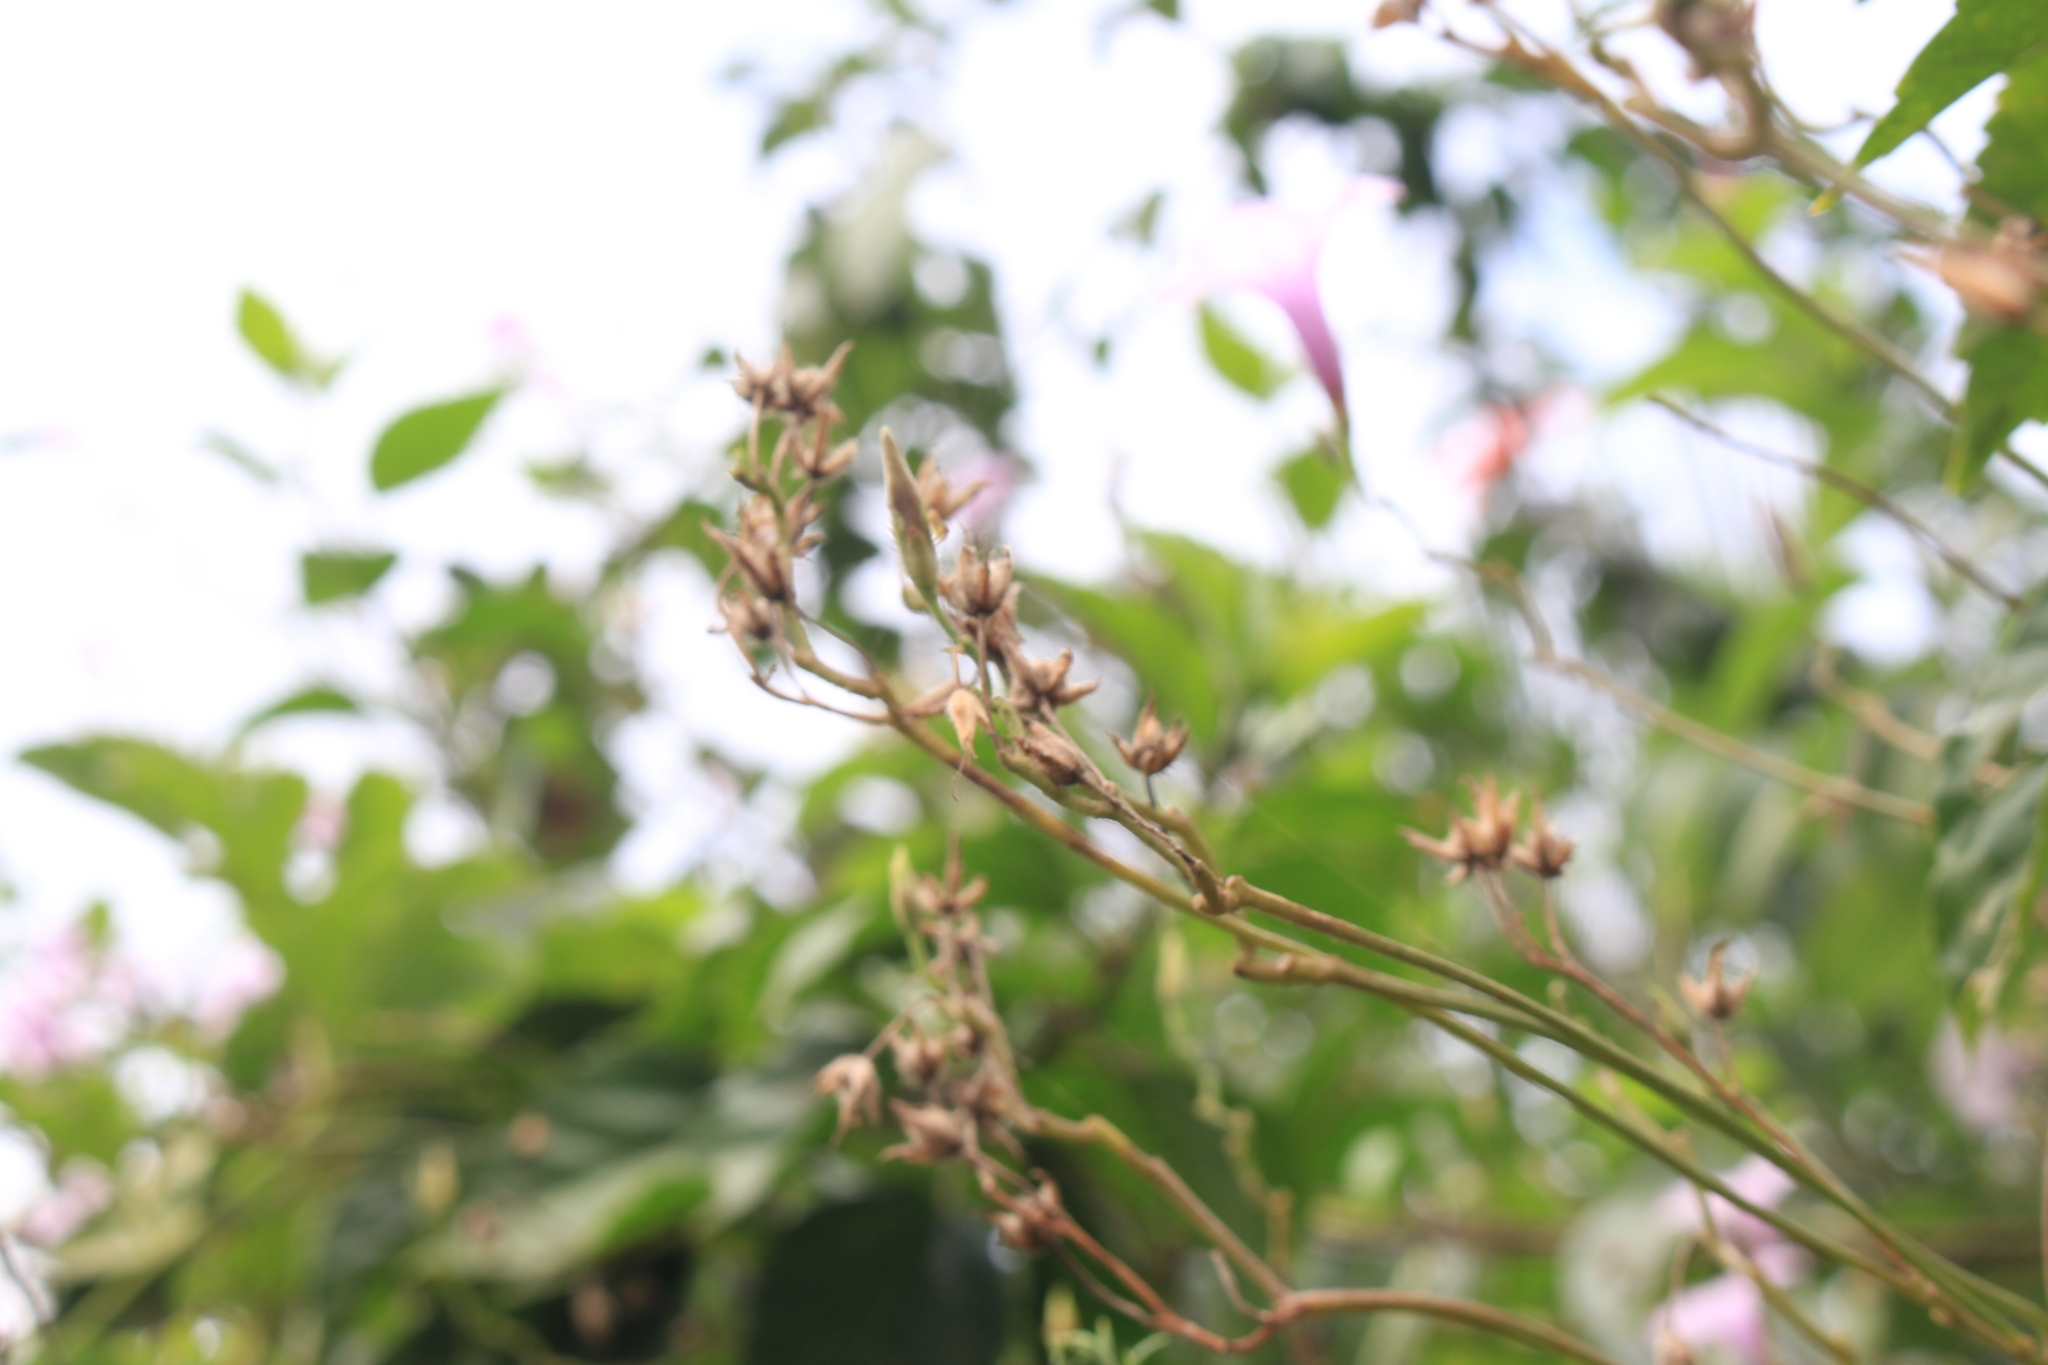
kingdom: Plantae
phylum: Tracheophyta
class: Magnoliopsida
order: Solanales
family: Convolvulaceae
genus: Ipomoea
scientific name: Ipomoea trifida
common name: Cotton morningglory
